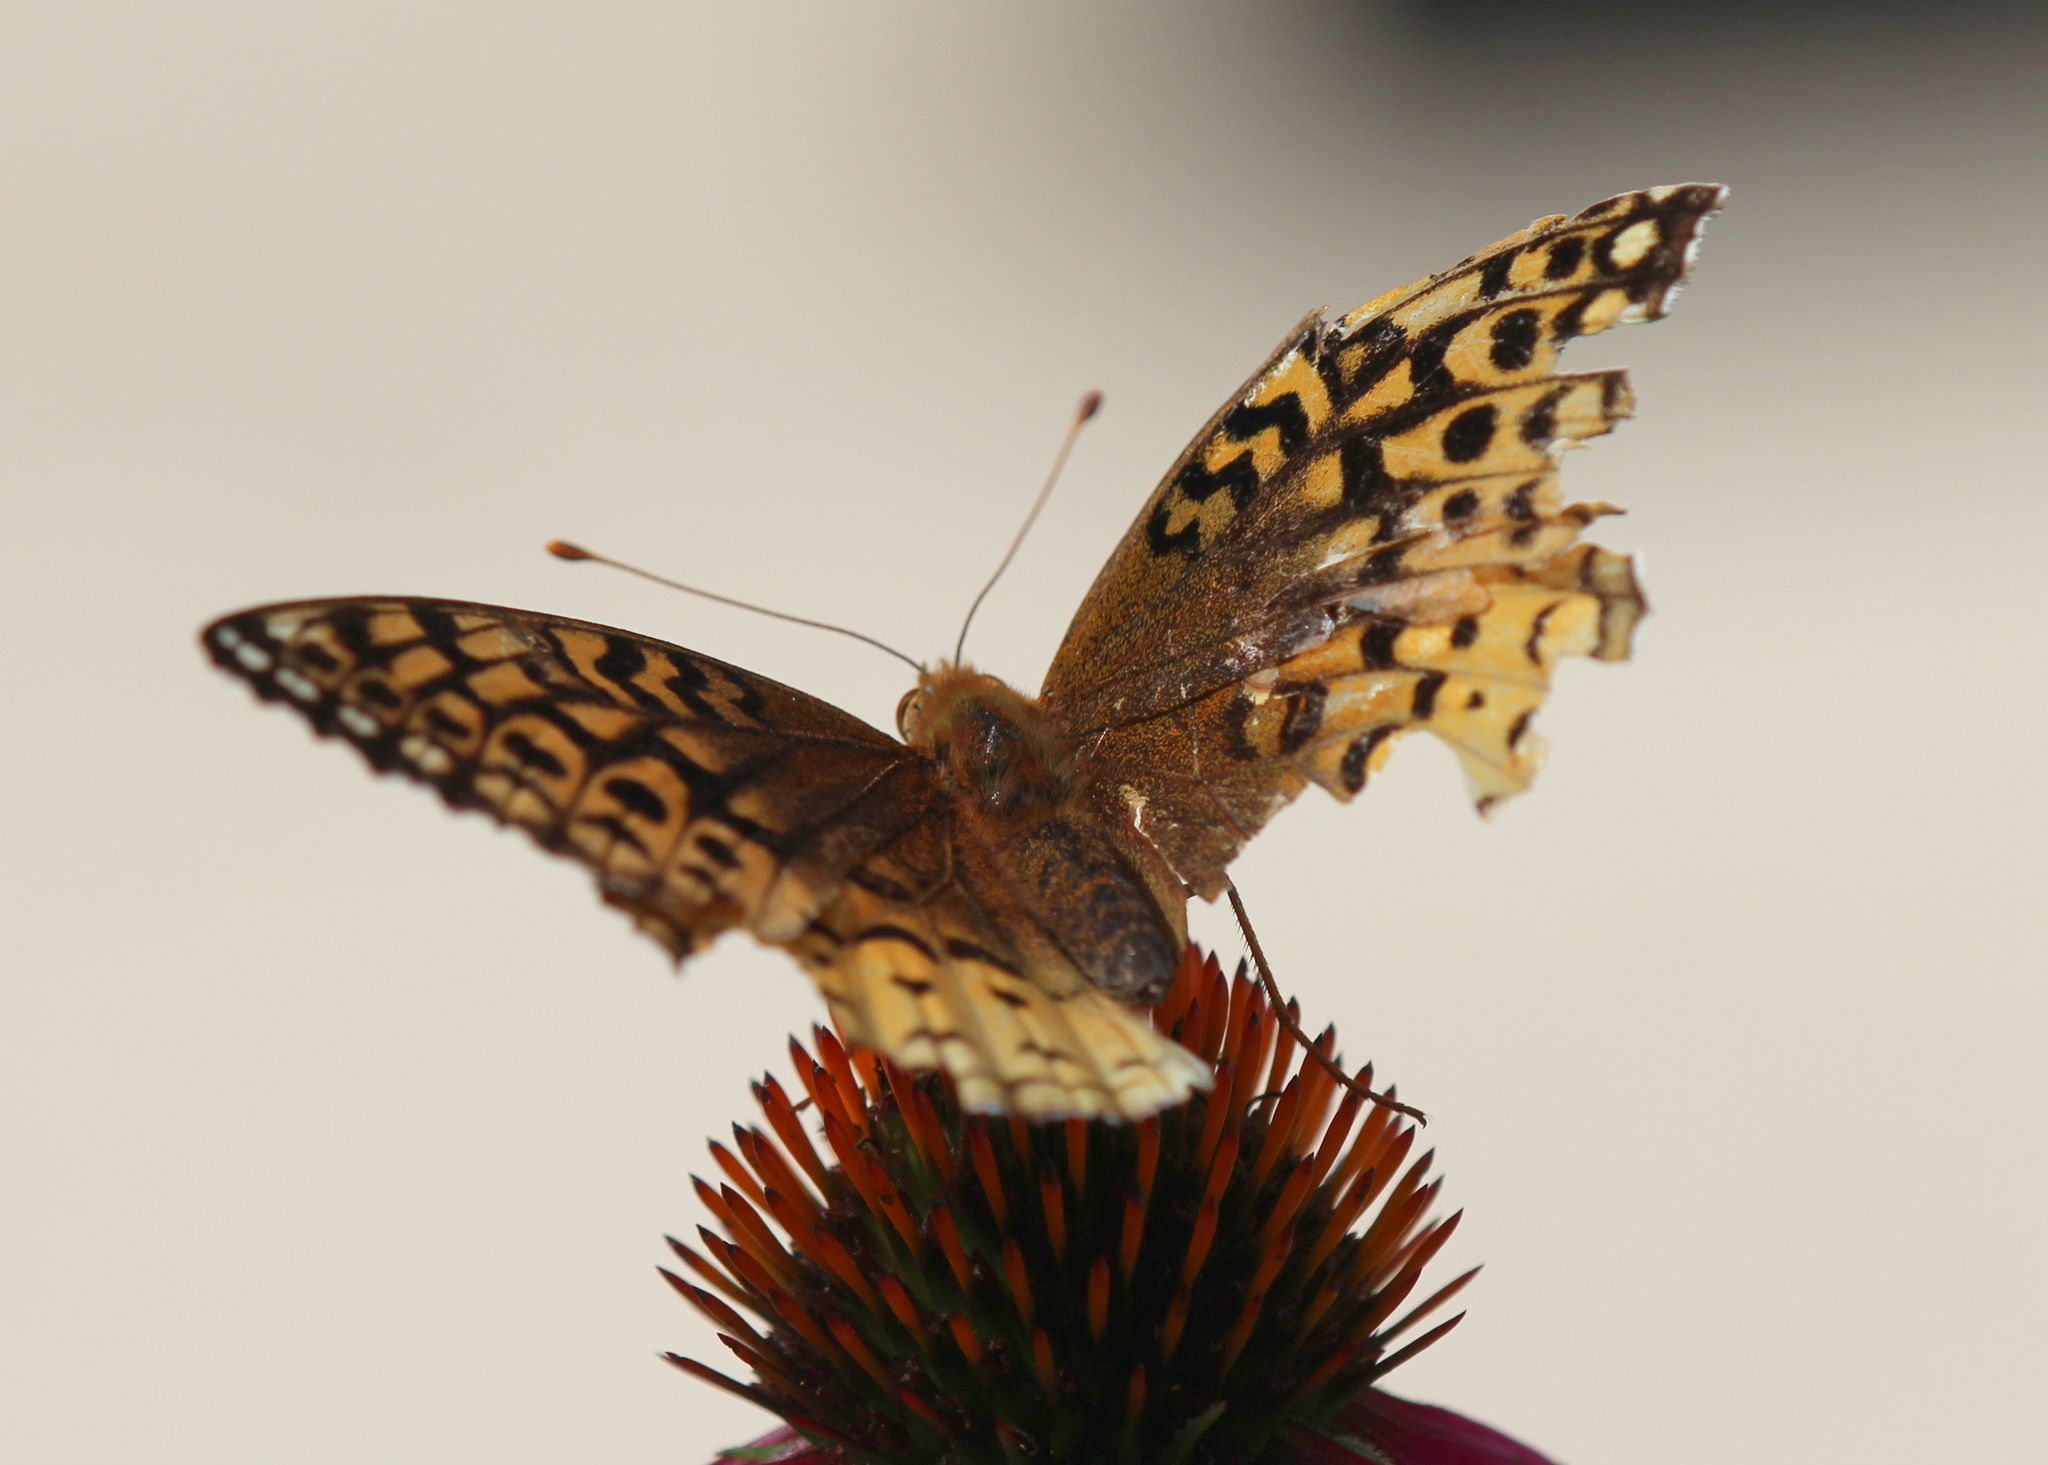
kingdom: Animalia
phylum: Arthropoda
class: Insecta
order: Lepidoptera
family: Nymphalidae
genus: Speyeria
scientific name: Speyeria cybele
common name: Great spangled fritillary
